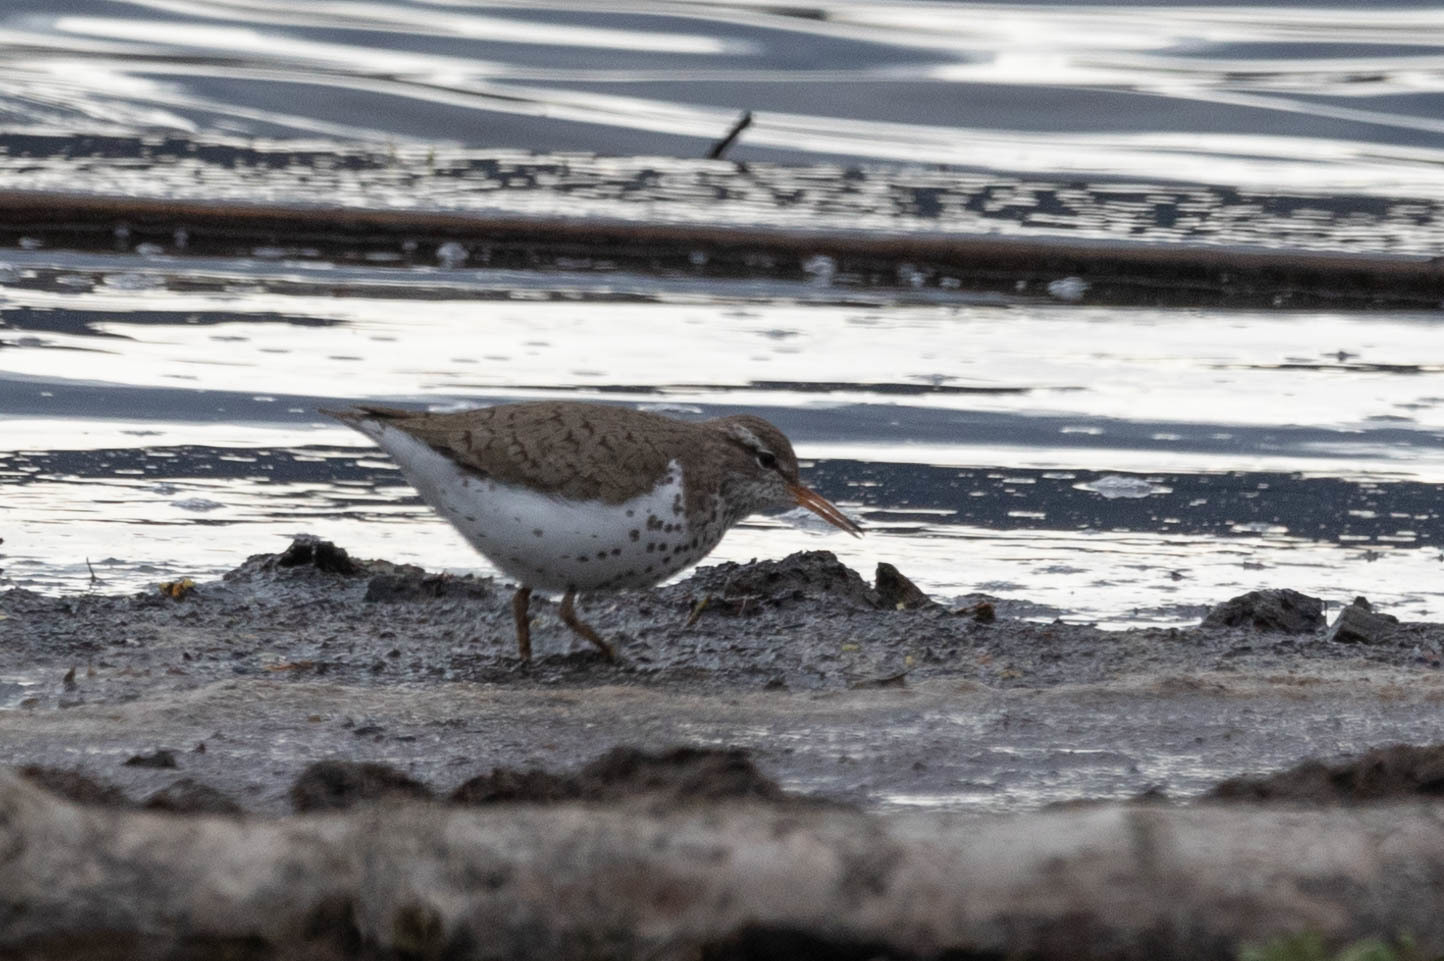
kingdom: Animalia
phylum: Chordata
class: Aves
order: Charadriiformes
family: Scolopacidae
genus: Actitis
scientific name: Actitis macularius
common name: Spotted sandpiper
